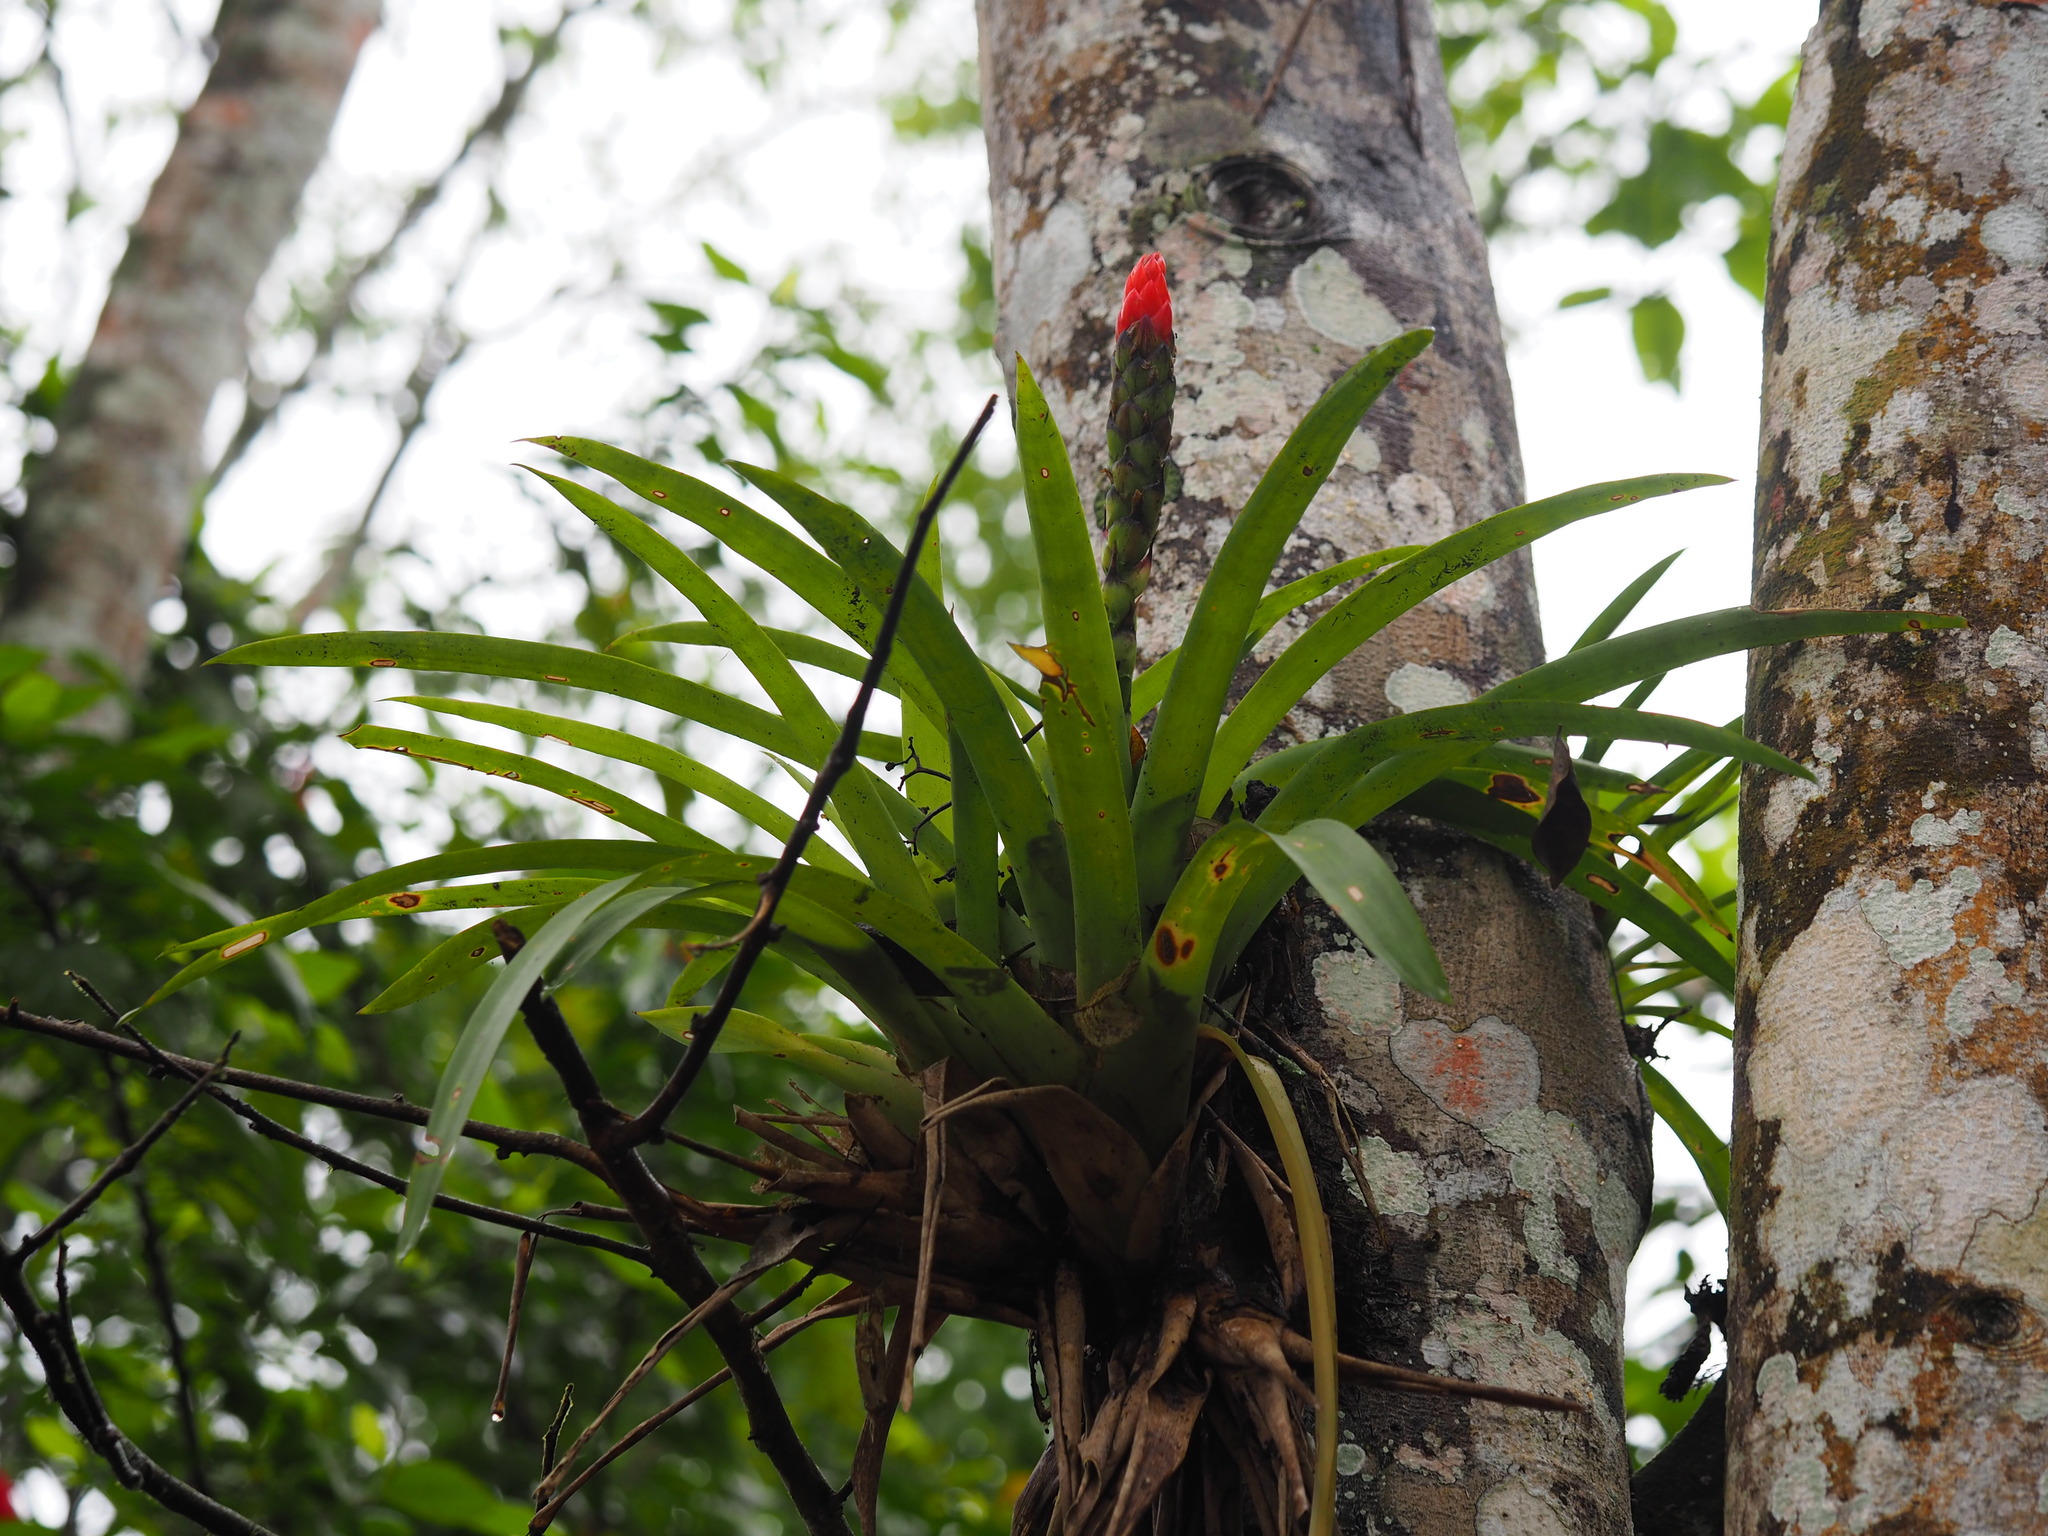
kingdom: Plantae
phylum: Tracheophyta
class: Liliopsida
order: Poales
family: Bromeliaceae
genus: Guzmania
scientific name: Guzmania monostachia
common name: West indian tufted airplant
